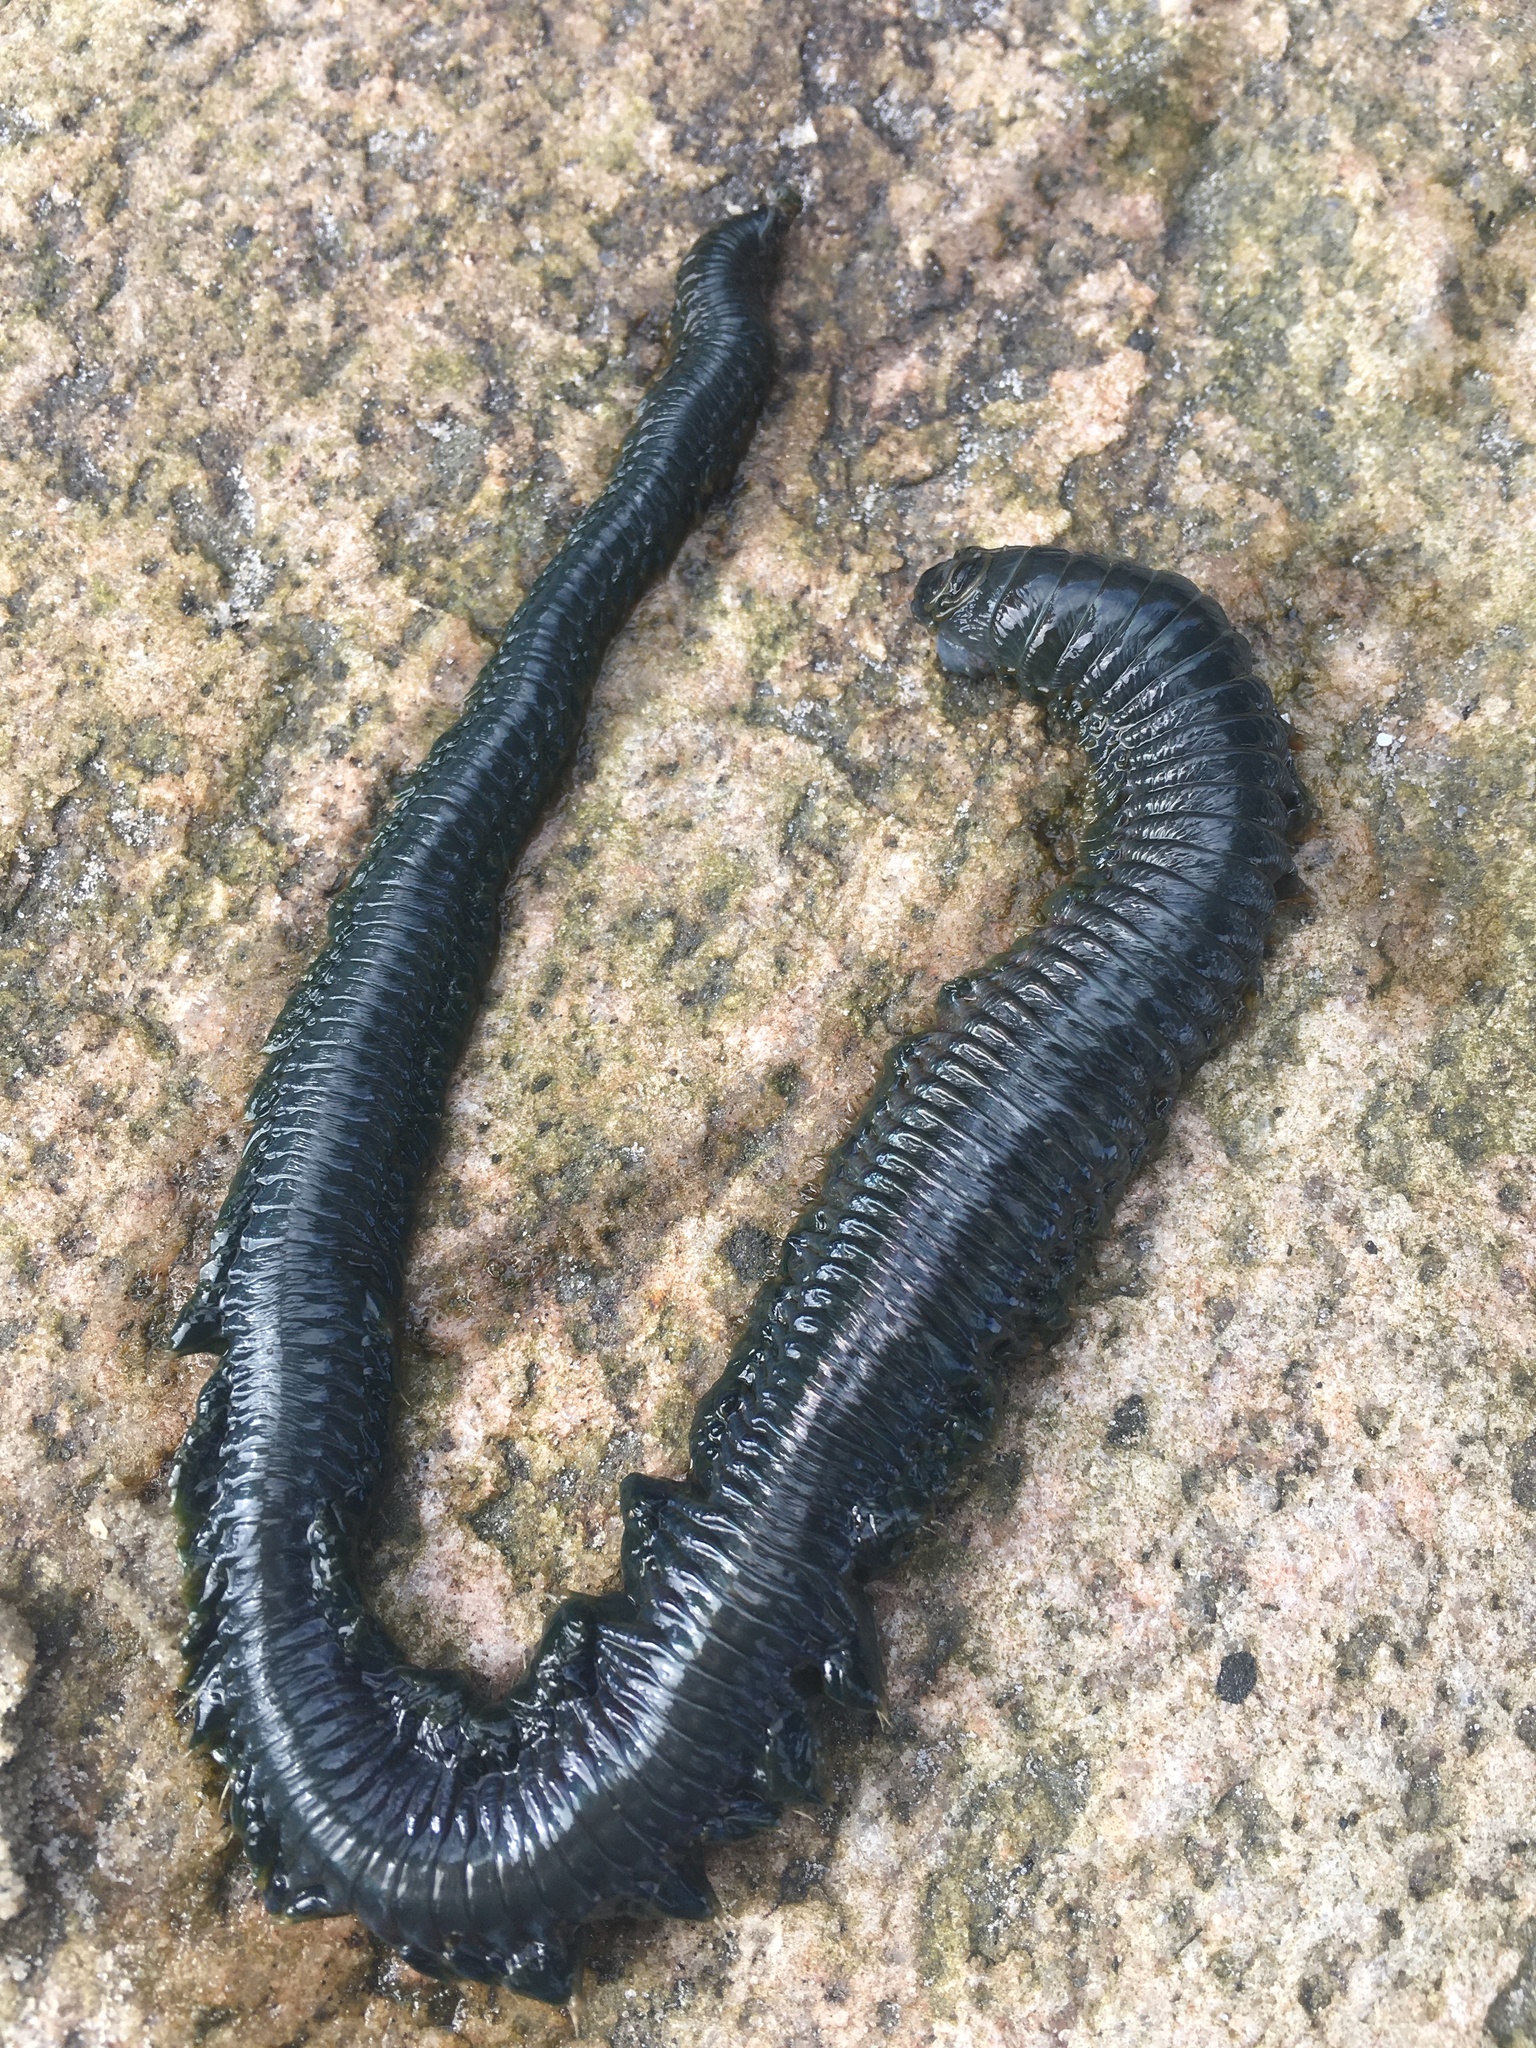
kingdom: Animalia
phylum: Annelida
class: Polychaeta
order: Phyllodocida
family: Nereididae
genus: Alitta
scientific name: Alitta virens
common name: King ragworm
